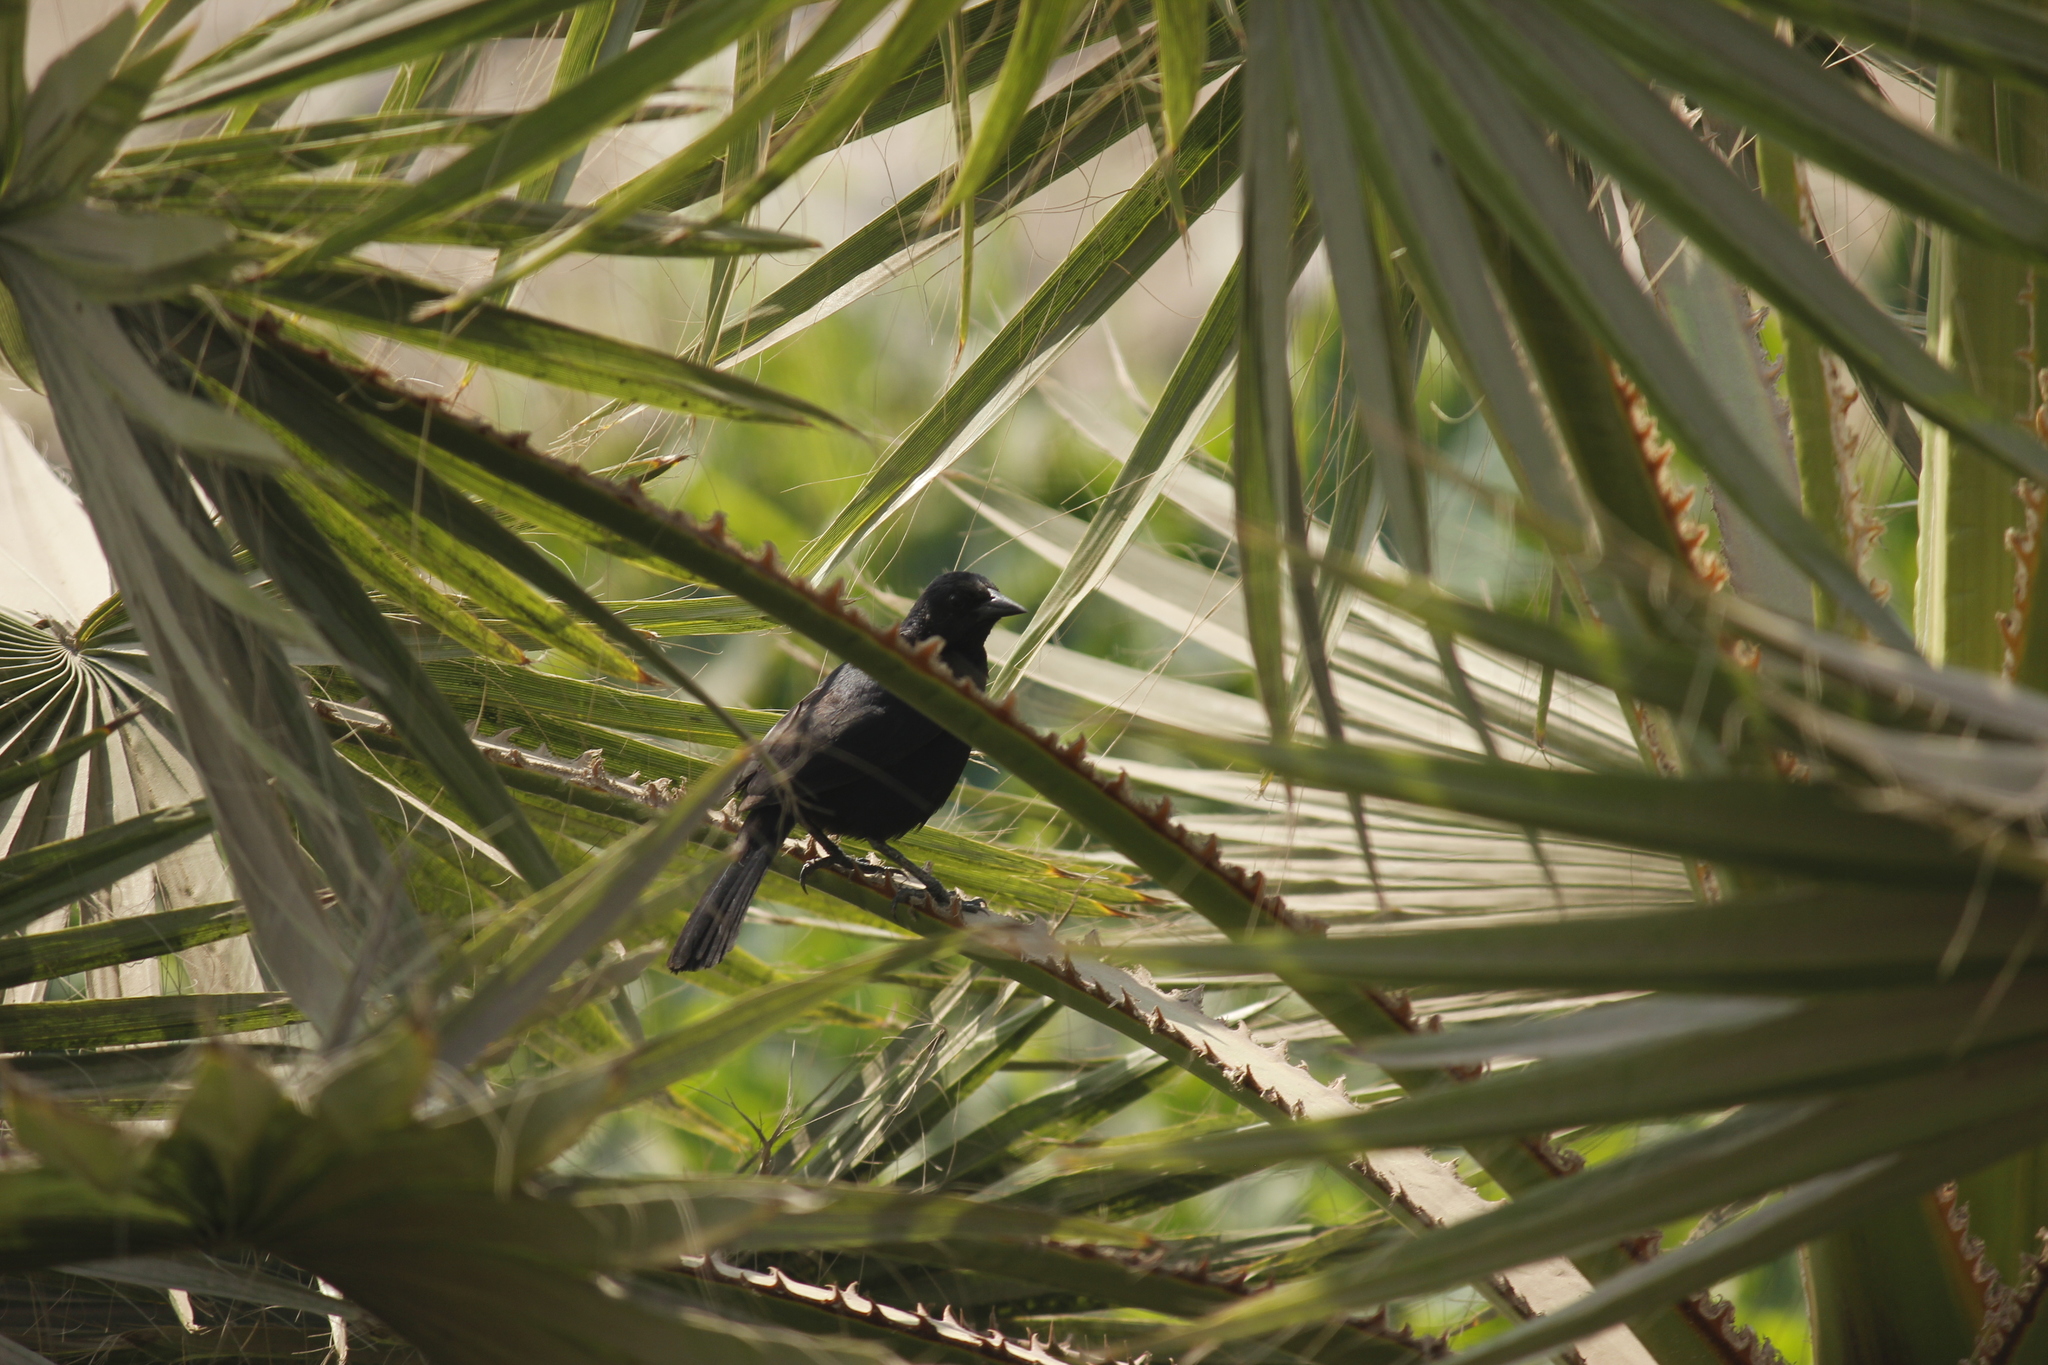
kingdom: Animalia
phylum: Chordata
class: Aves
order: Passeriformes
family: Icteridae
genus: Dives
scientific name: Dives warczewiczi
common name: Scrub blackbird
